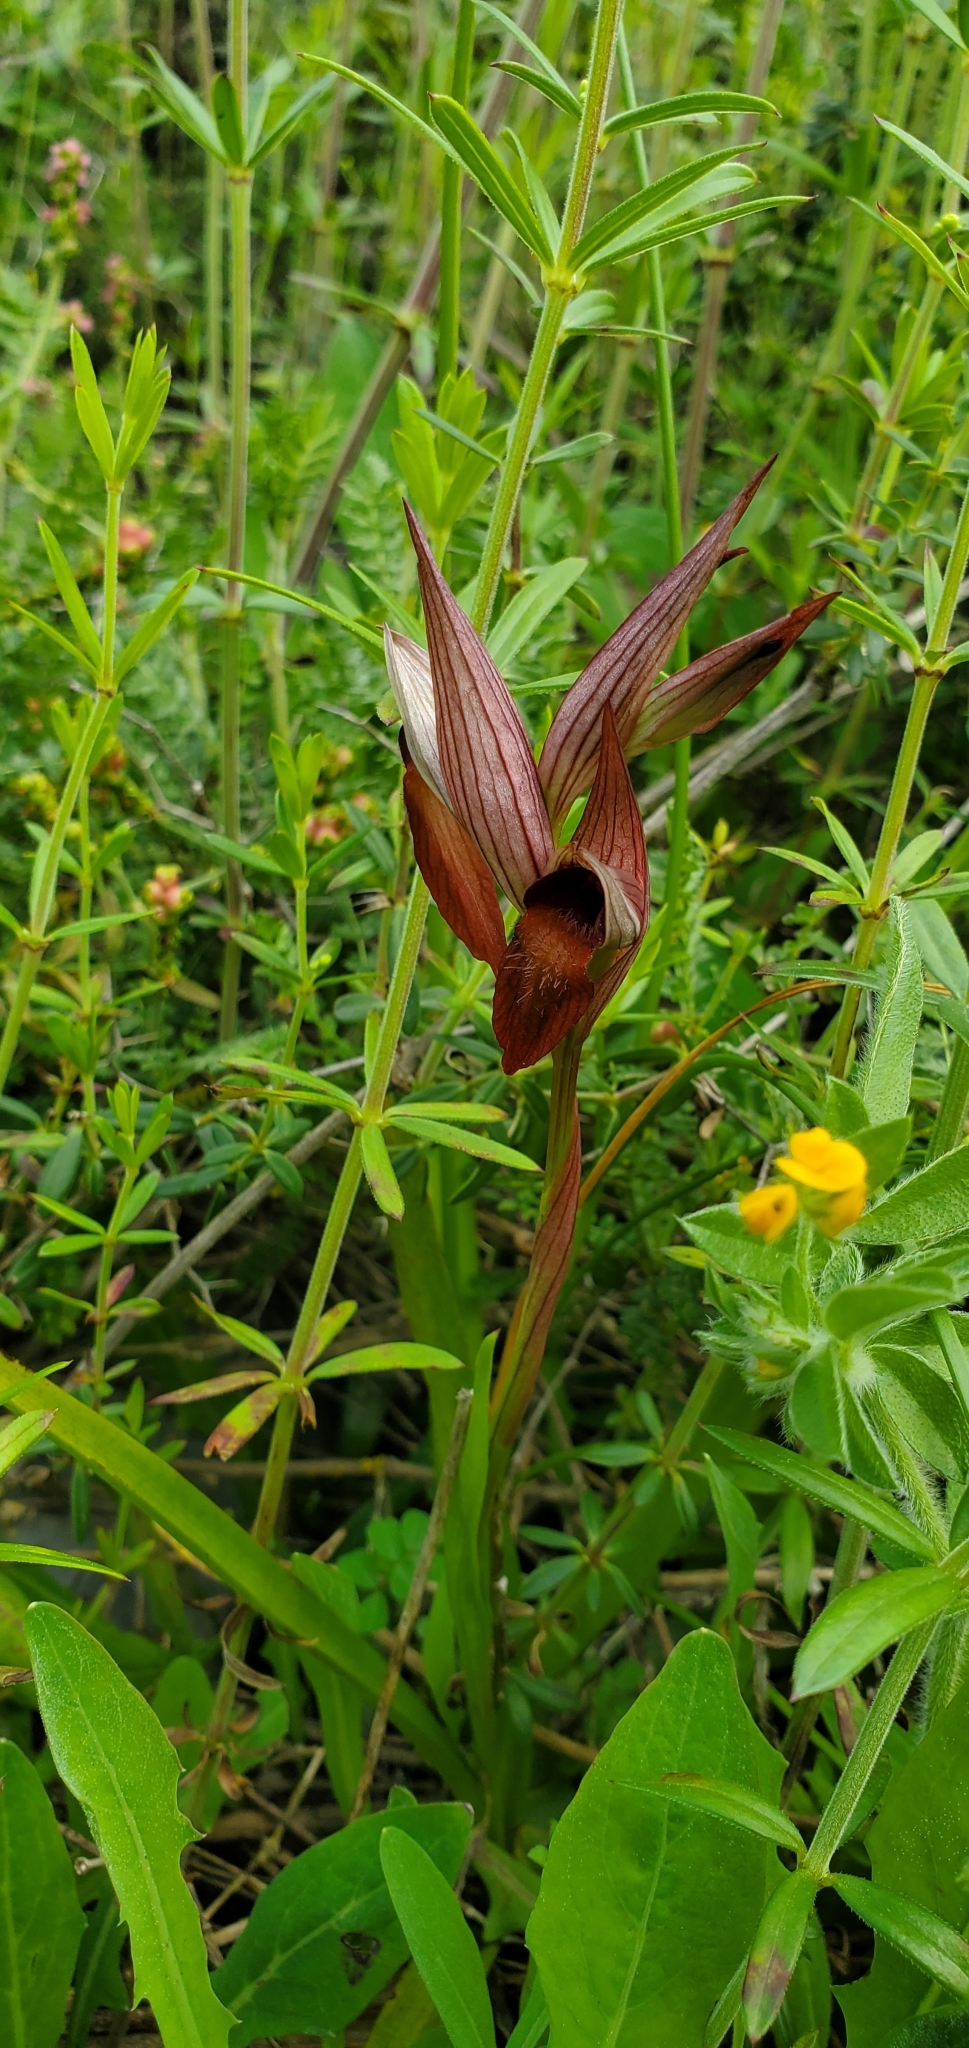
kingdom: Plantae
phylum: Tracheophyta
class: Liliopsida
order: Asparagales
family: Orchidaceae
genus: Serapias
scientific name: Serapias orientalis
